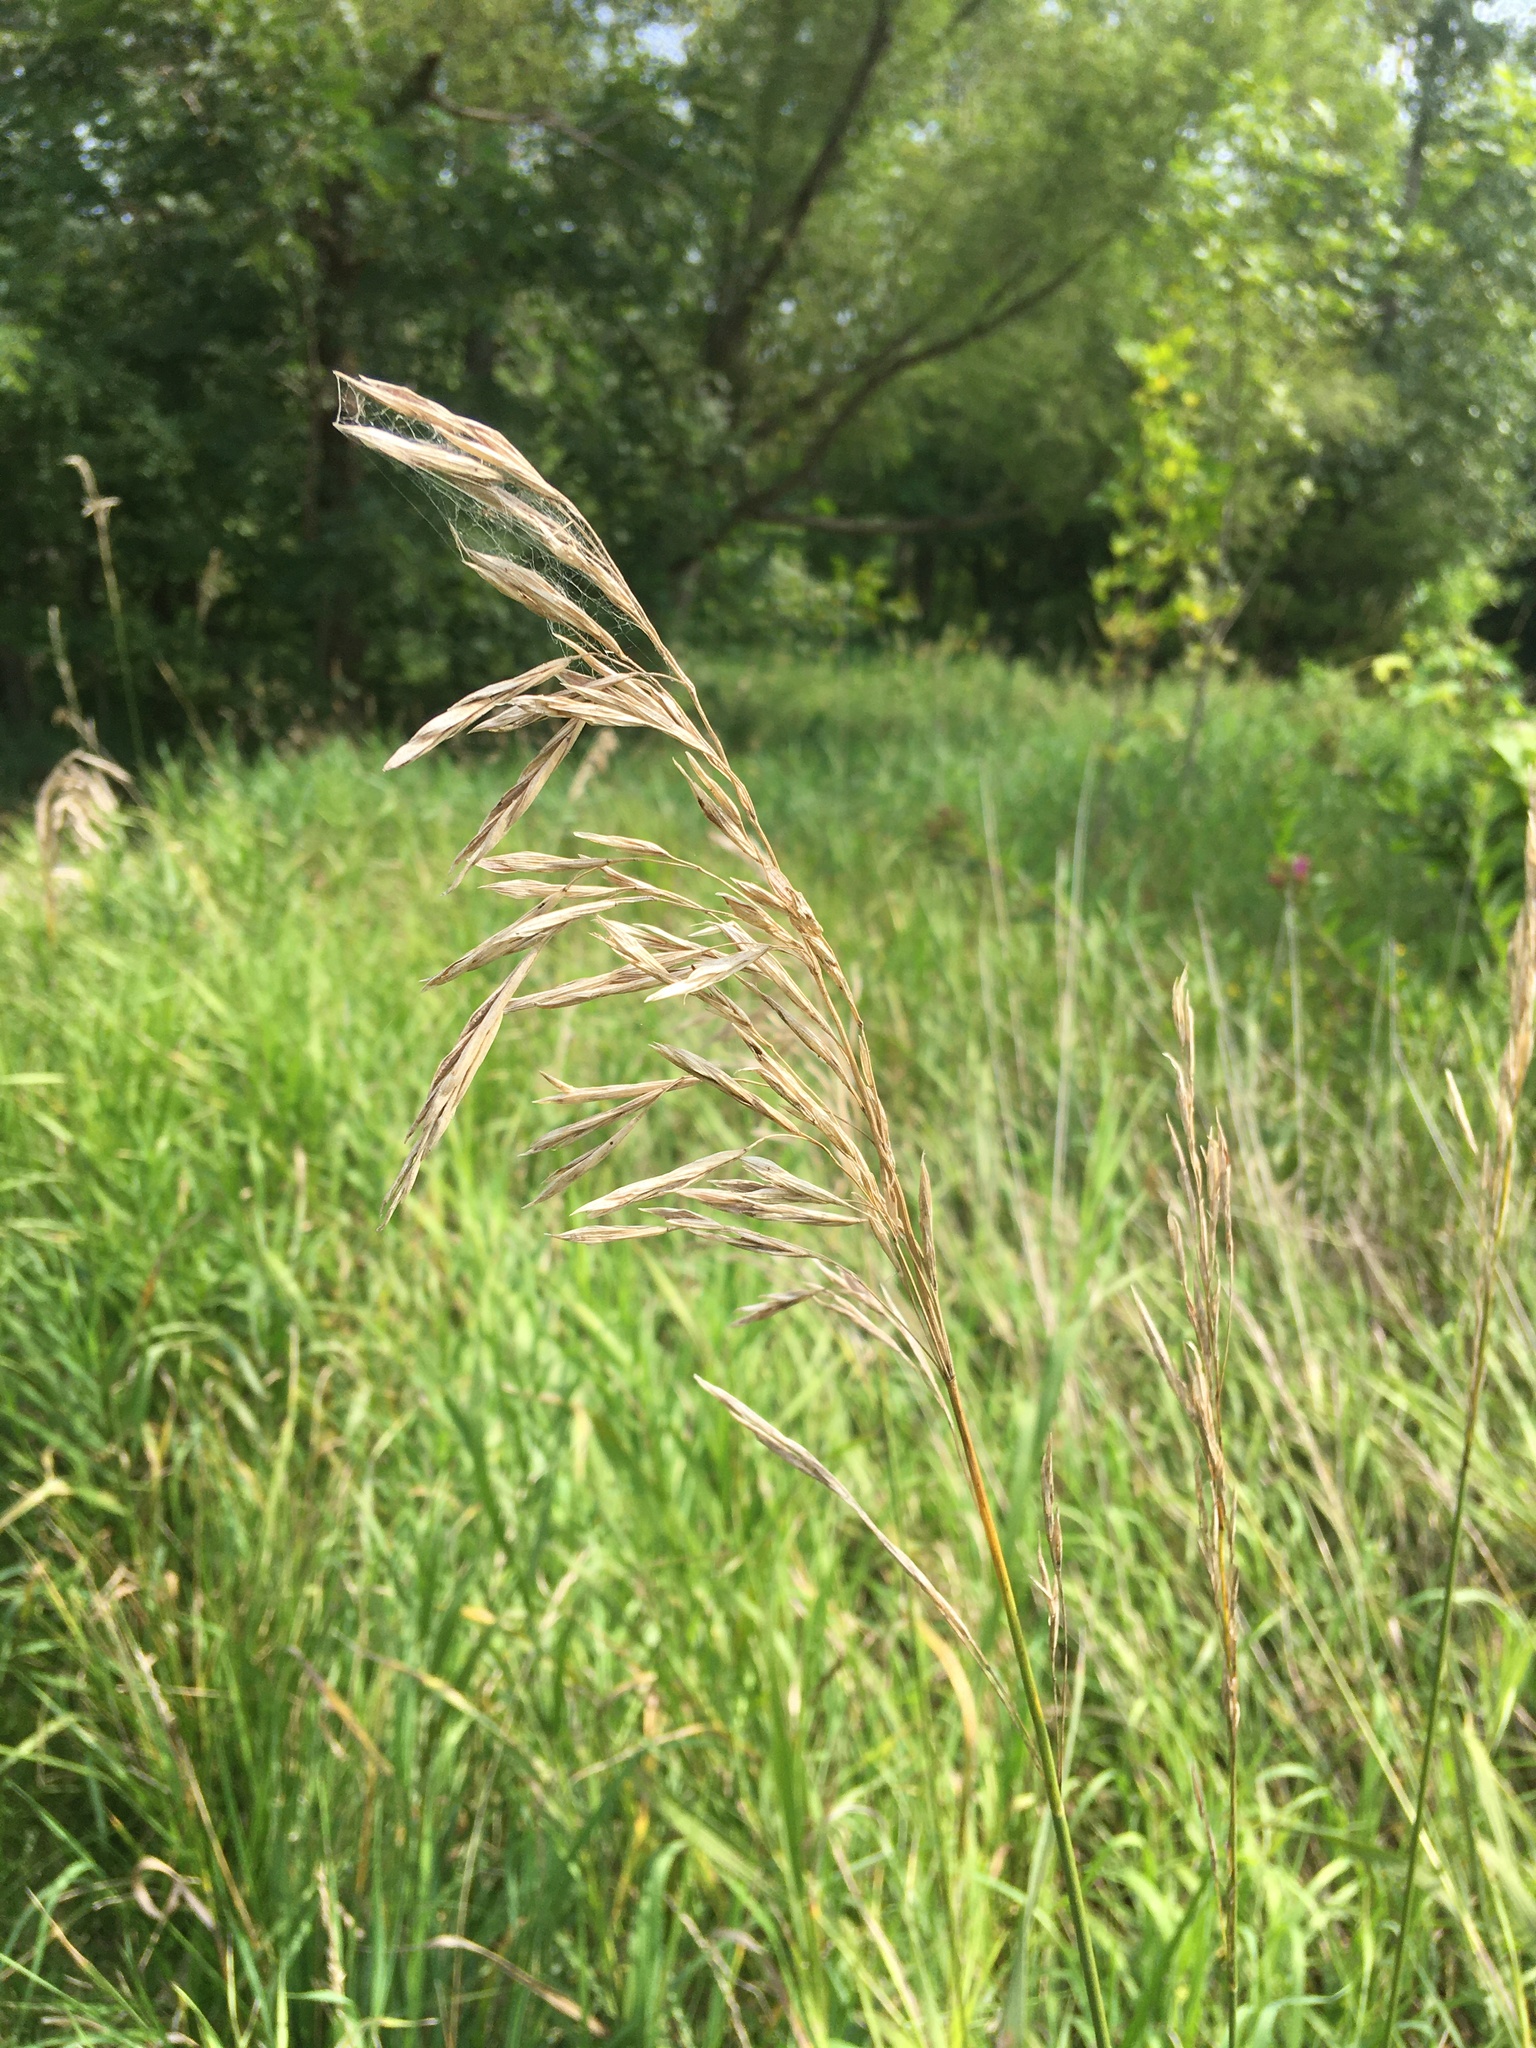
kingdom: Plantae
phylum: Tracheophyta
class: Liliopsida
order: Poales
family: Poaceae
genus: Bromus
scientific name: Bromus inermis
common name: Smooth brome
